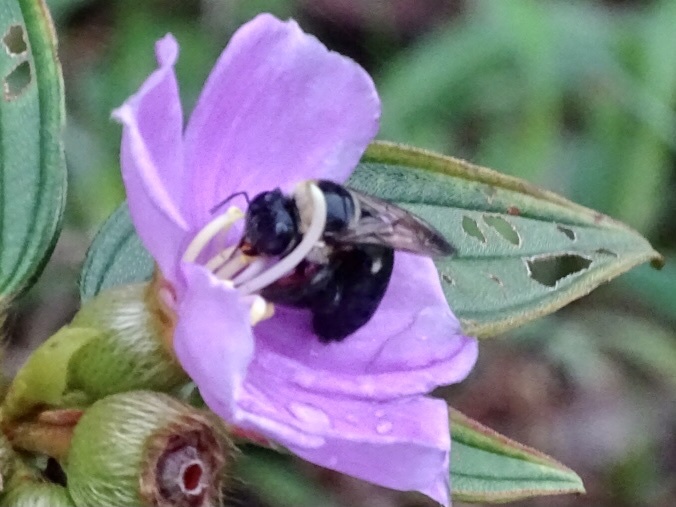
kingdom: Animalia
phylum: Arthropoda
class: Insecta
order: Hymenoptera
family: Apidae
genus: Xylocopa
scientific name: Xylocopa dejeanii
